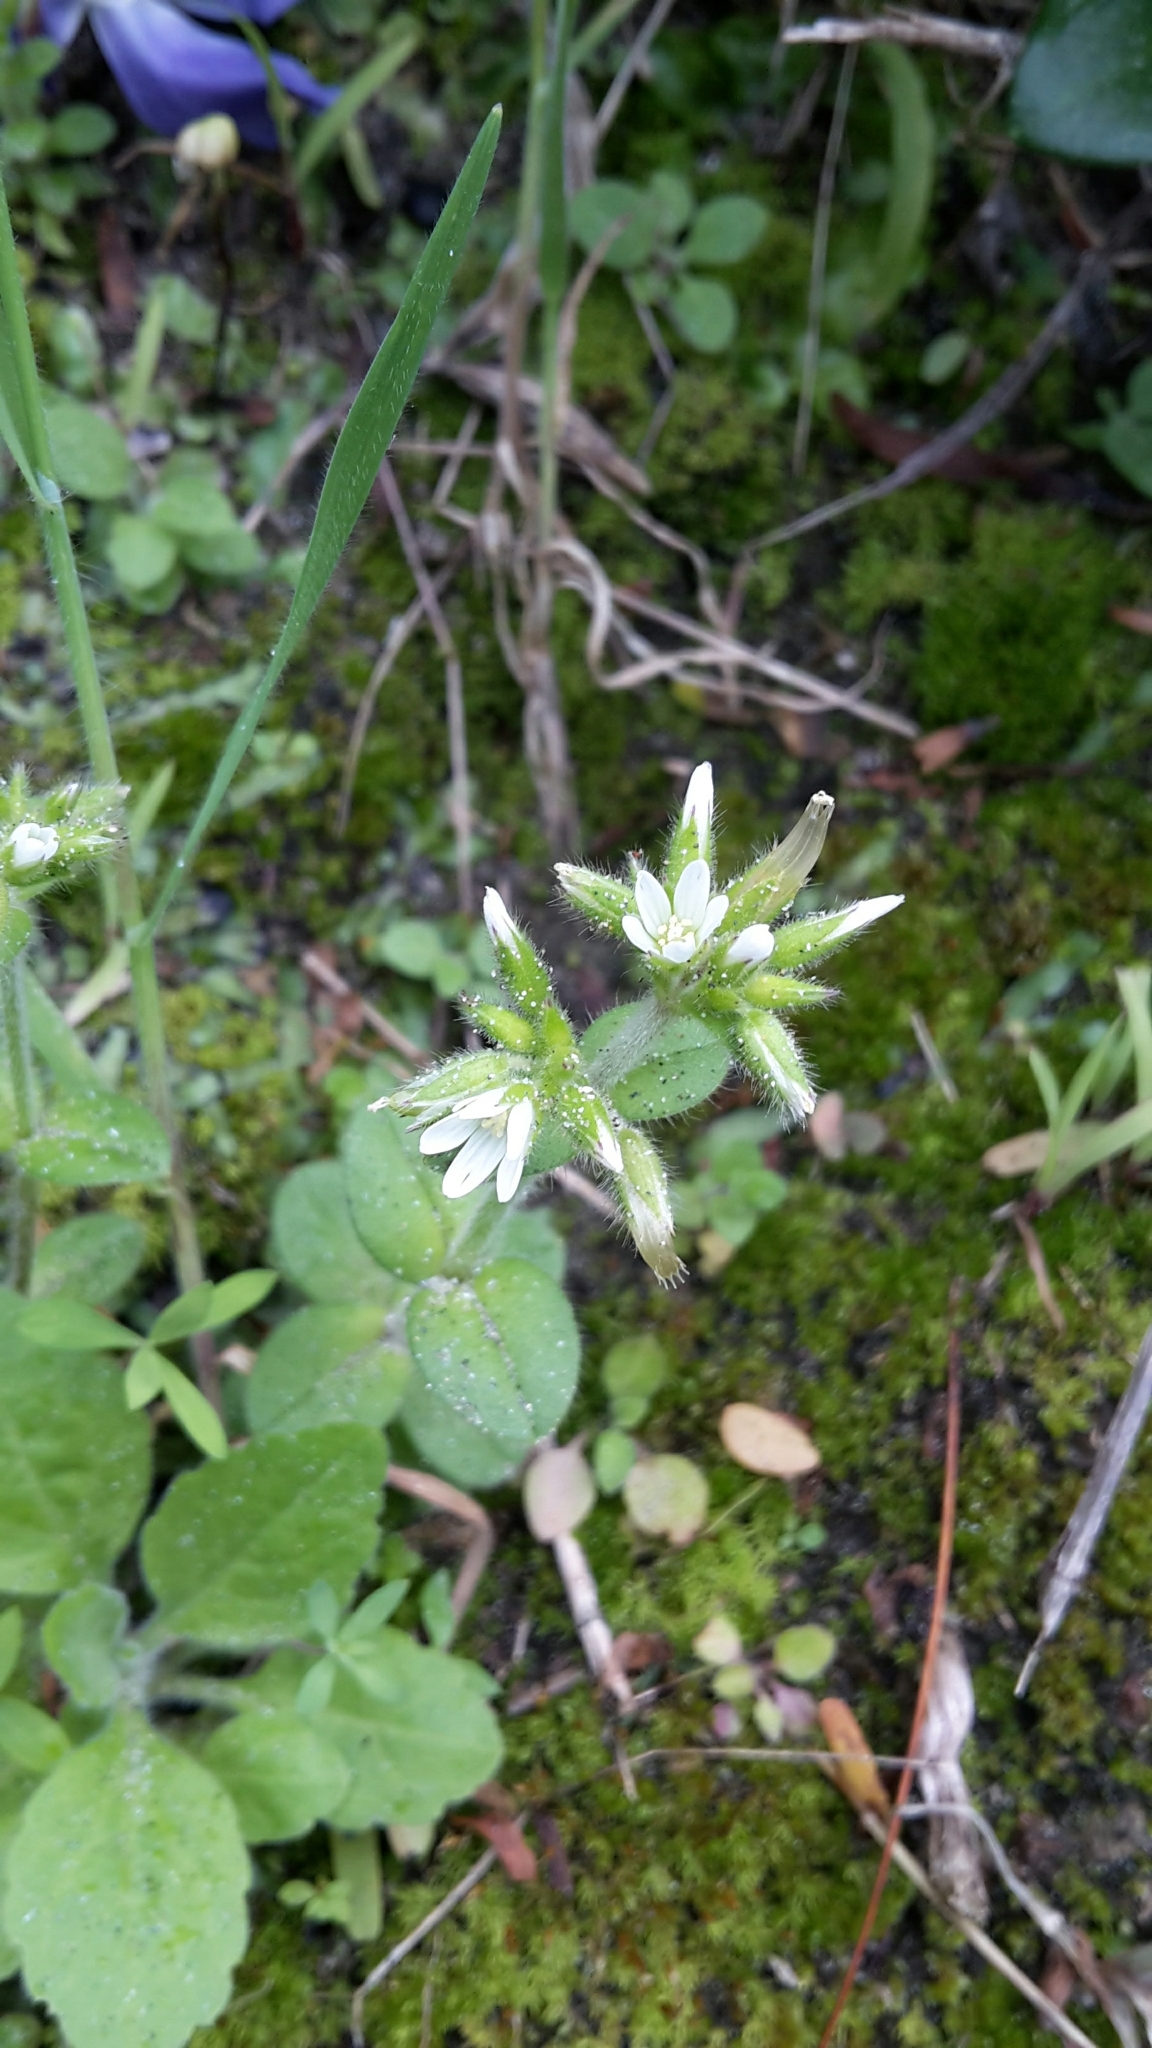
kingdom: Plantae
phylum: Tracheophyta
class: Magnoliopsida
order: Caryophyllales
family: Caryophyllaceae
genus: Cerastium
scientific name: Cerastium glomeratum
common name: Sticky chickweed
